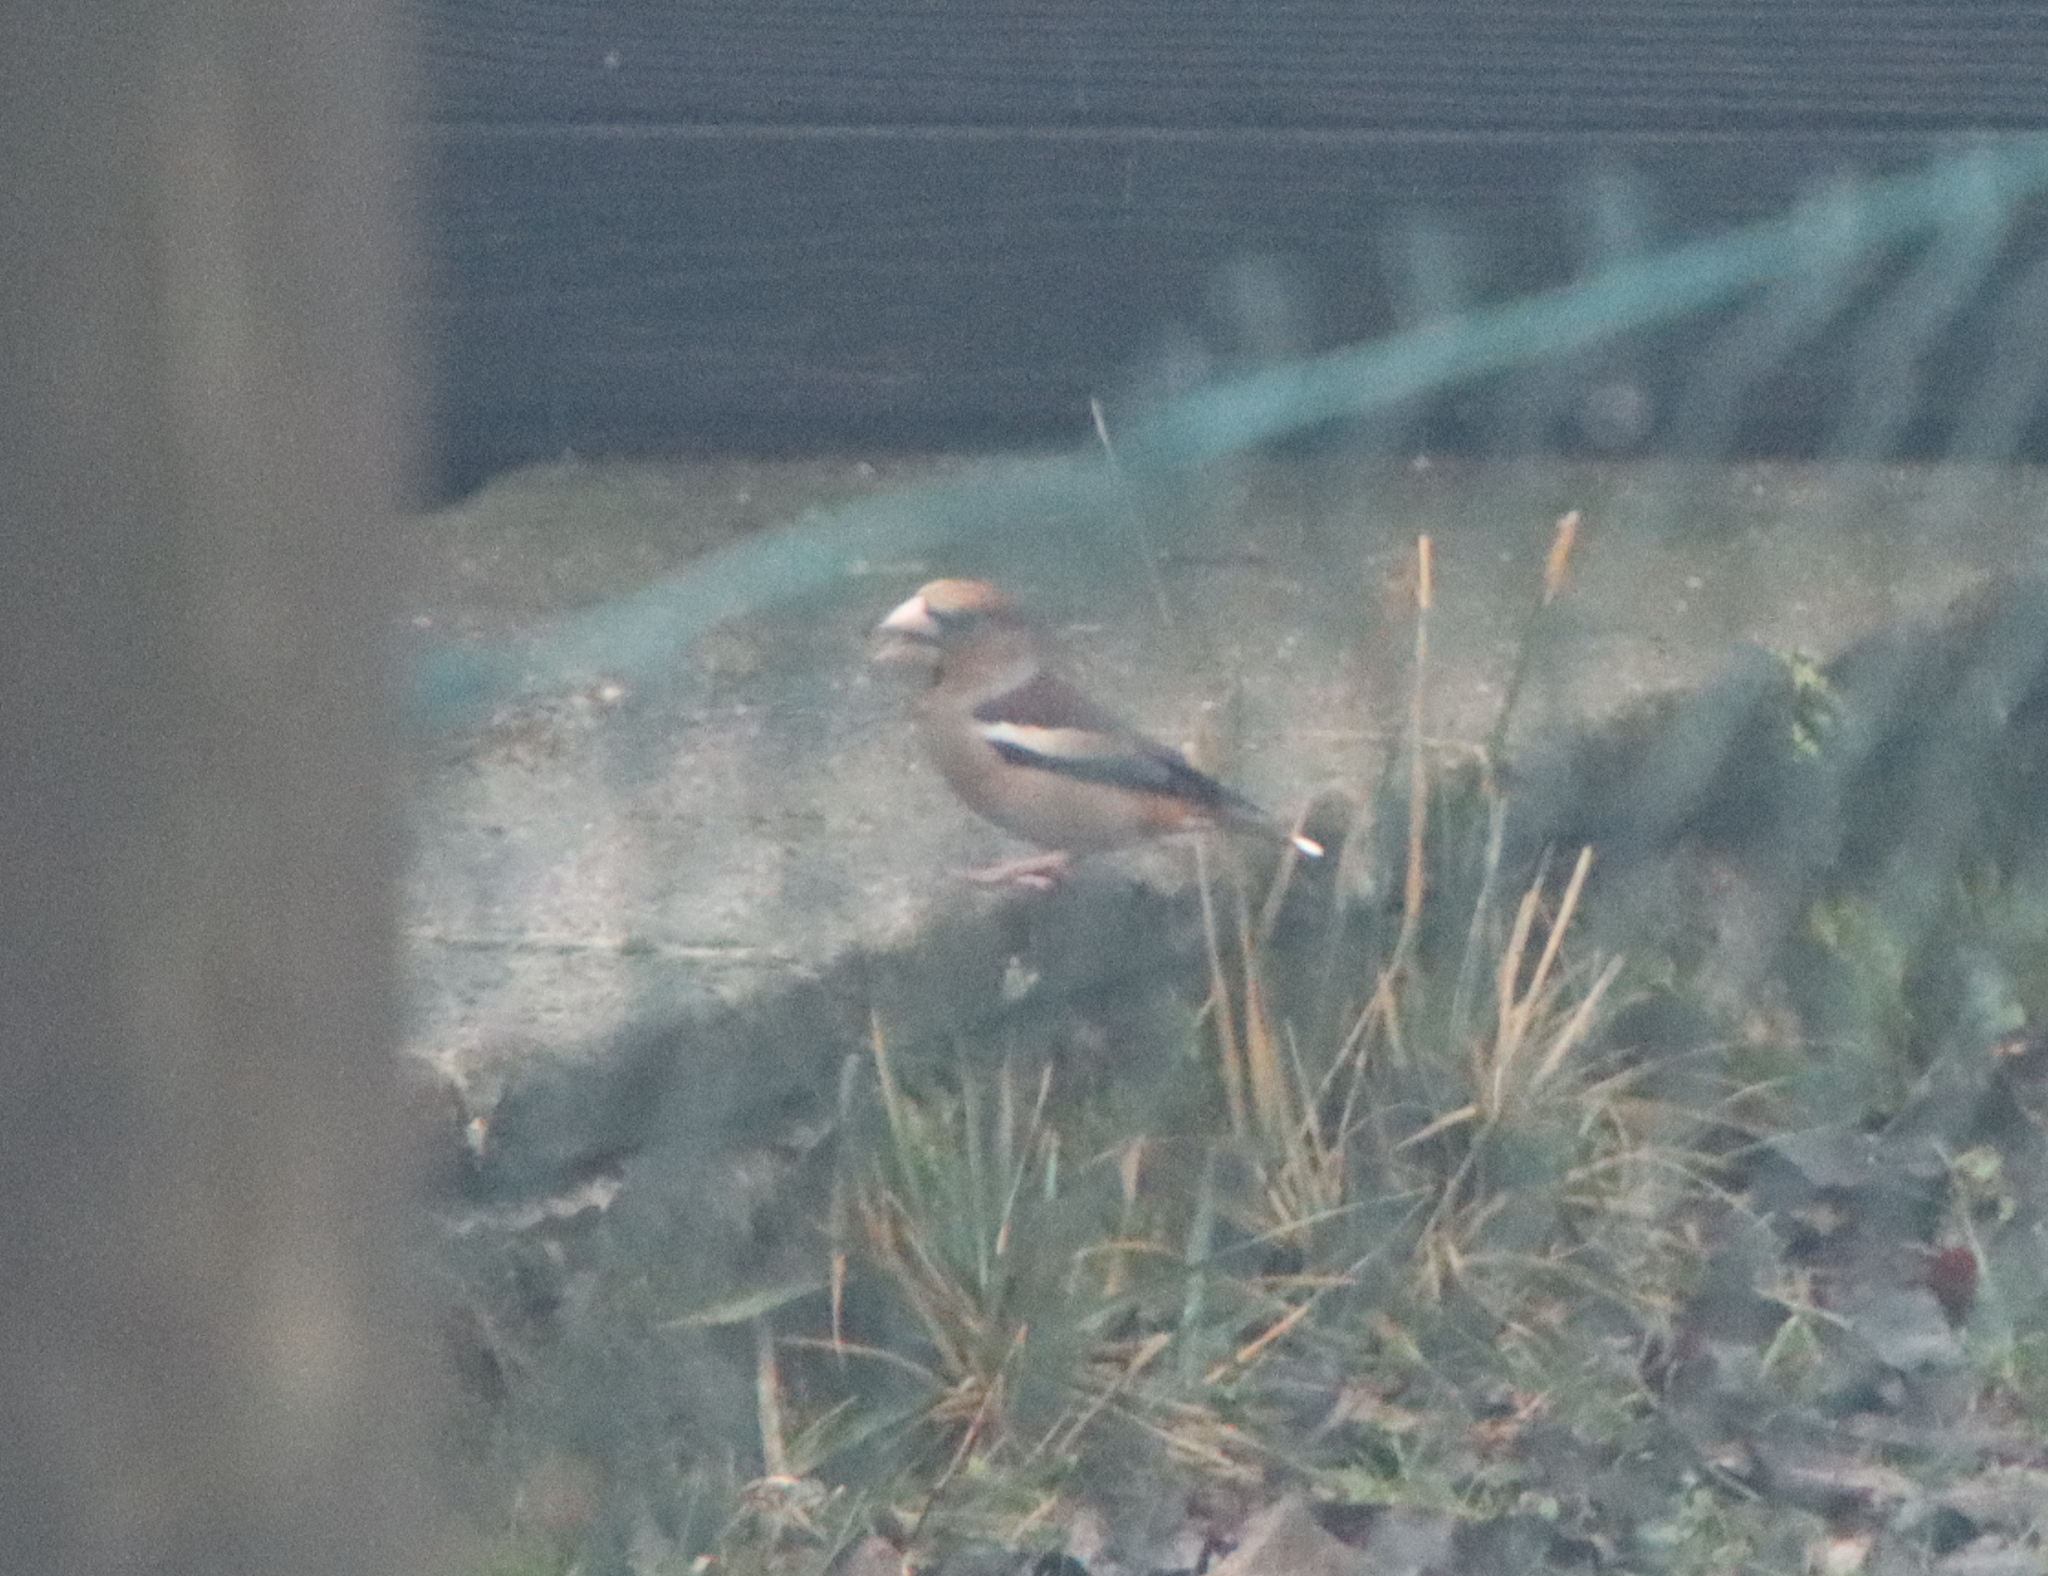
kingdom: Animalia
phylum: Chordata
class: Aves
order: Passeriformes
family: Fringillidae
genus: Coccothraustes
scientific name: Coccothraustes coccothraustes
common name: Hawfinch
